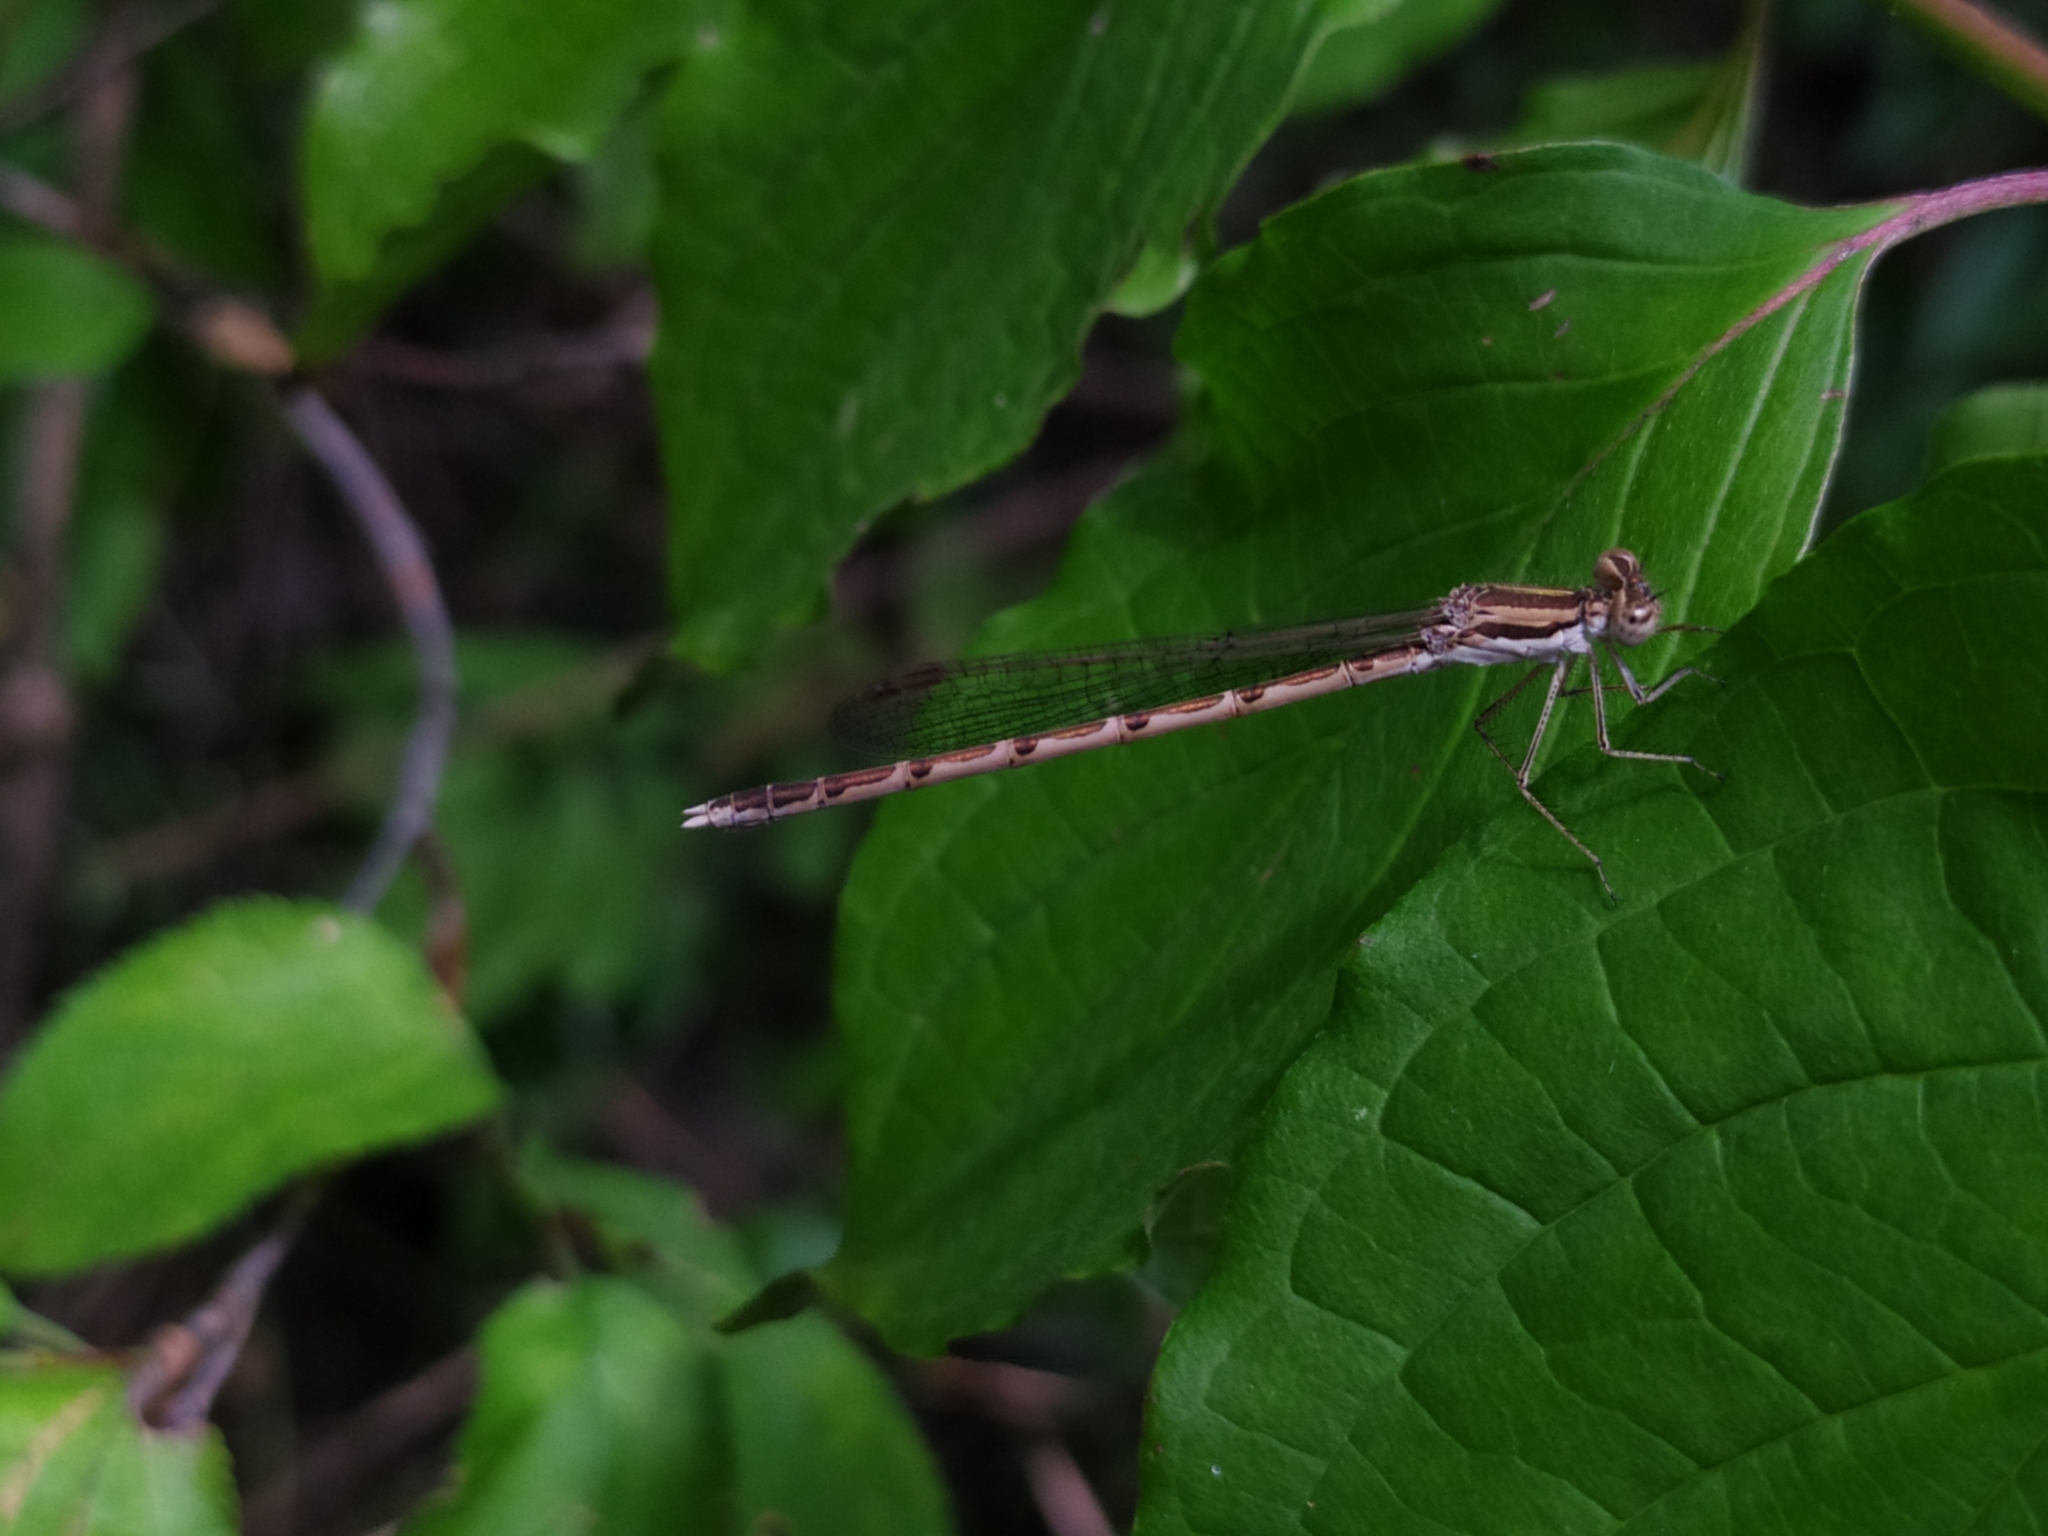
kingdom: Animalia
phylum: Arthropoda
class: Insecta
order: Odonata
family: Lestidae
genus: Sympecma
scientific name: Sympecma fusca
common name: Common winter damsel
